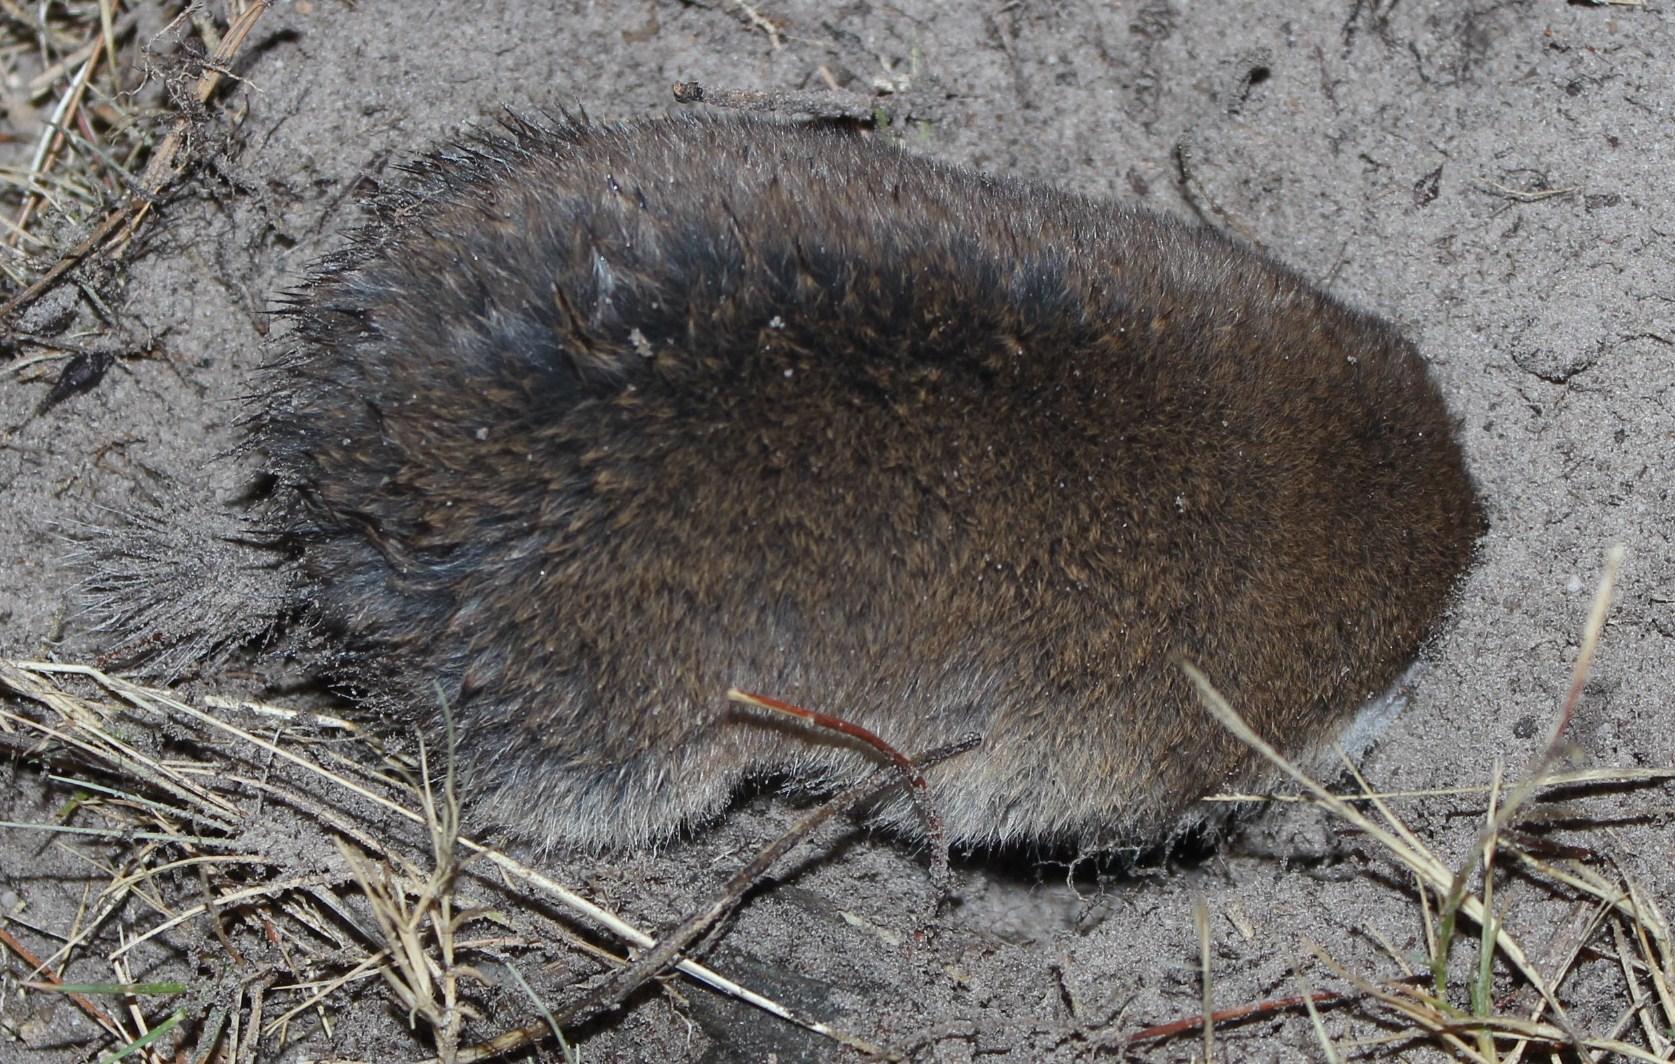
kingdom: Animalia
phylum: Chordata
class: Mammalia
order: Rodentia
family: Bathyergidae
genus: Georychus
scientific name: Georychus capensis
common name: Cape mole-rat
